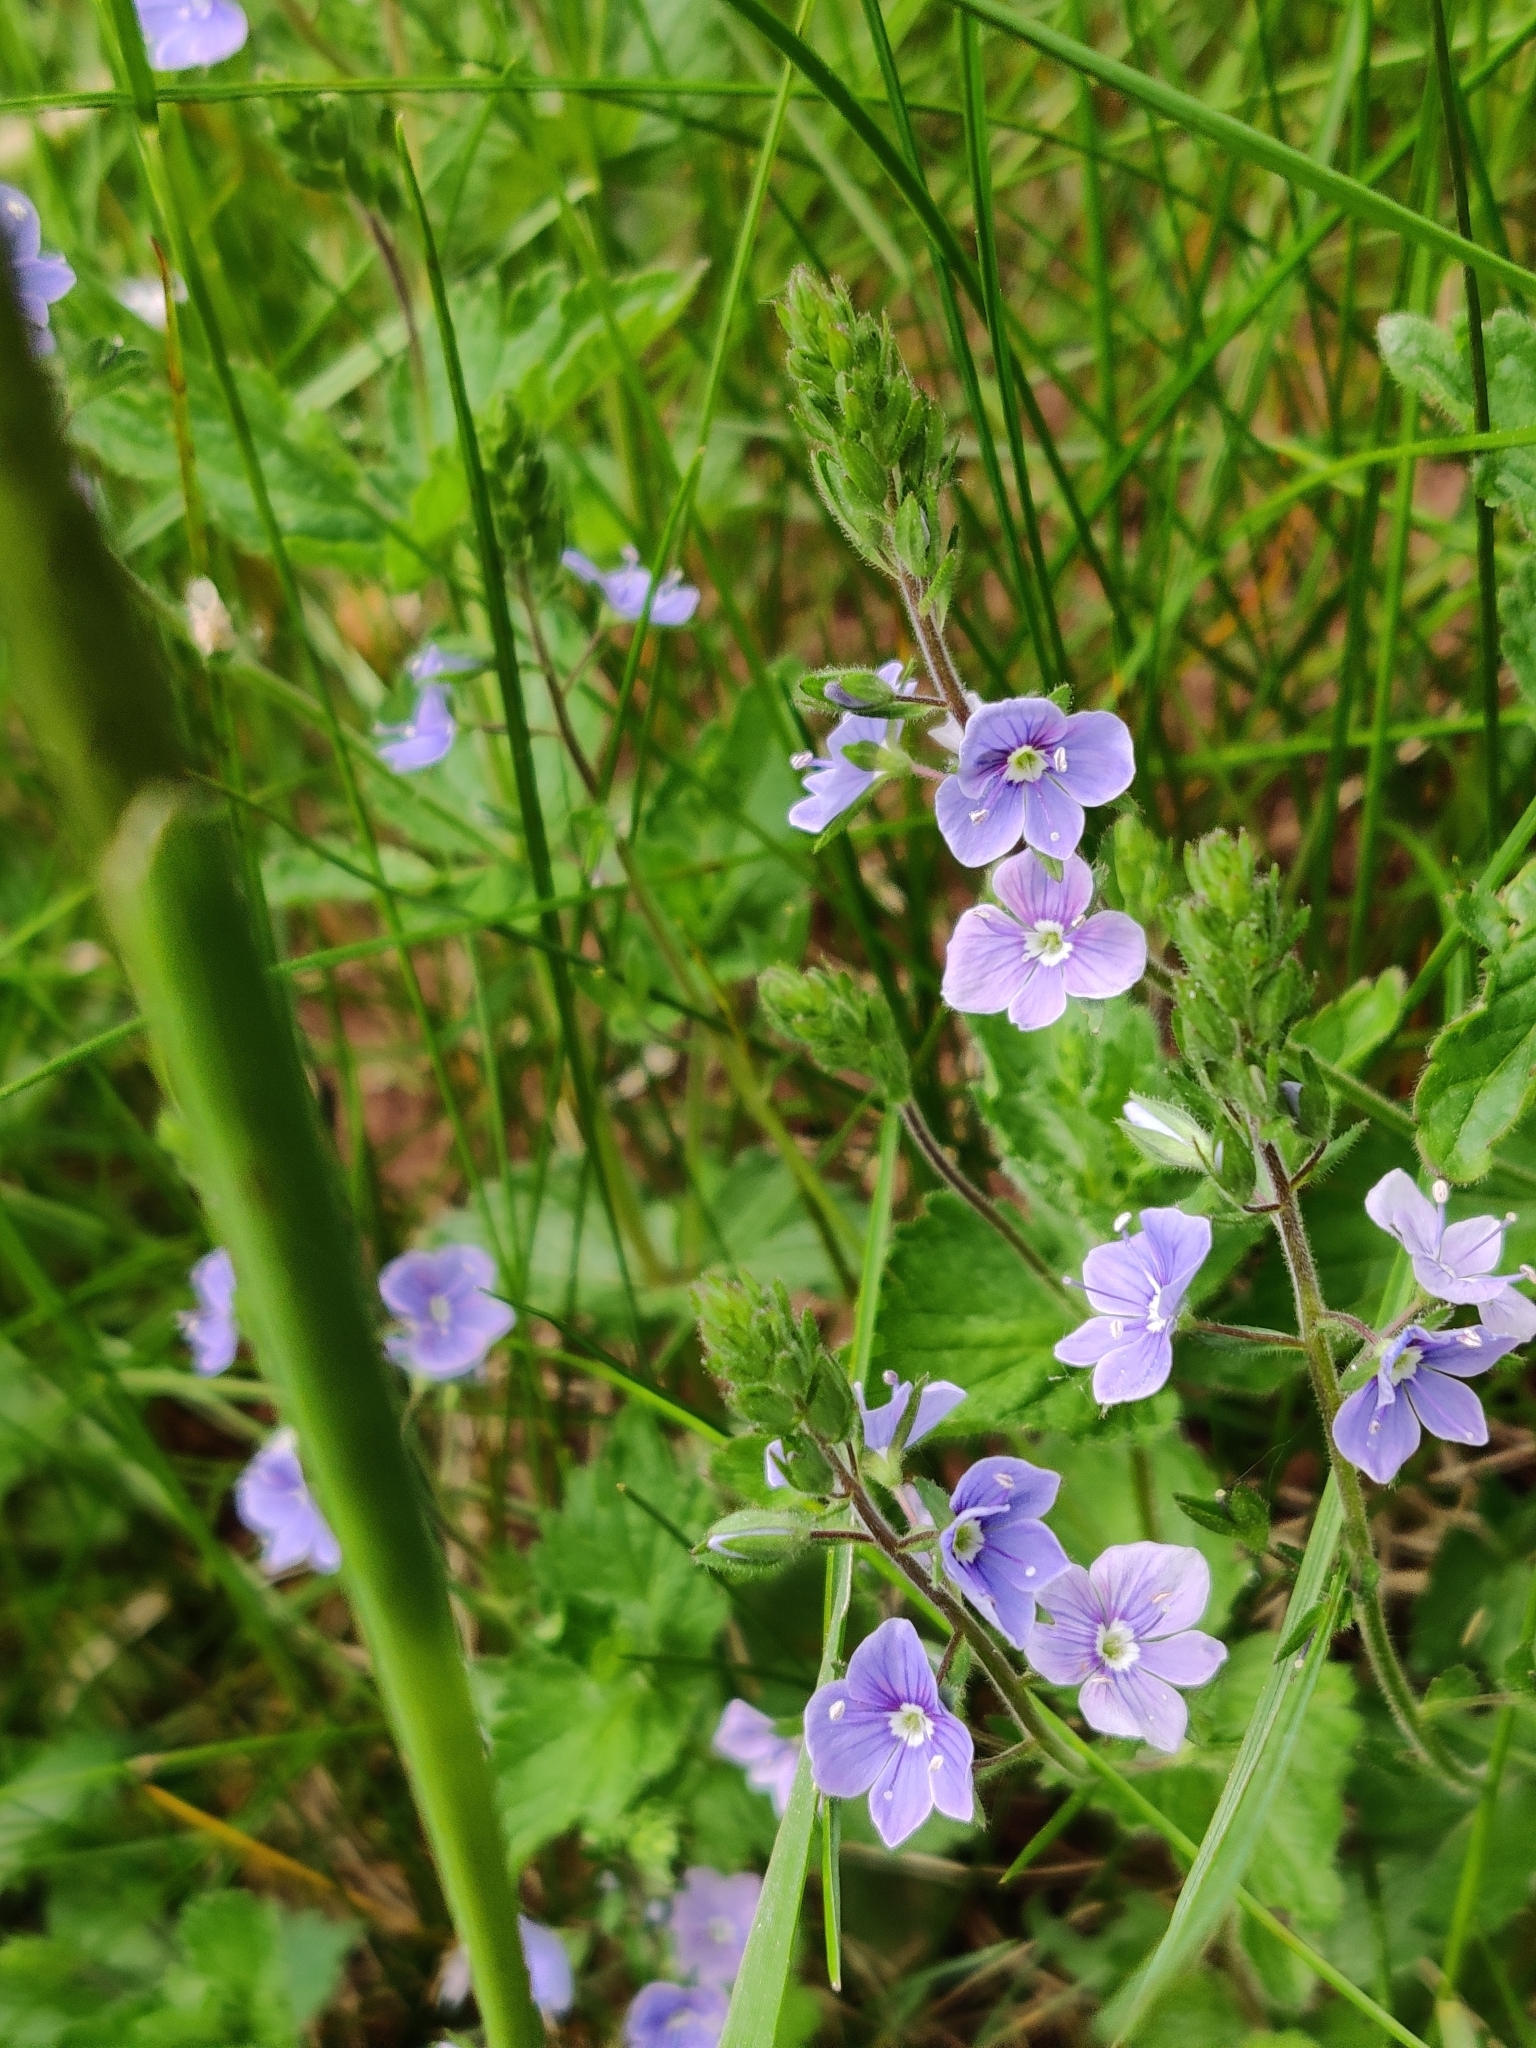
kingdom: Plantae
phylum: Tracheophyta
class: Magnoliopsida
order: Lamiales
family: Plantaginaceae
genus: Veronica
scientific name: Veronica chamaedrys
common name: Germander speedwell
